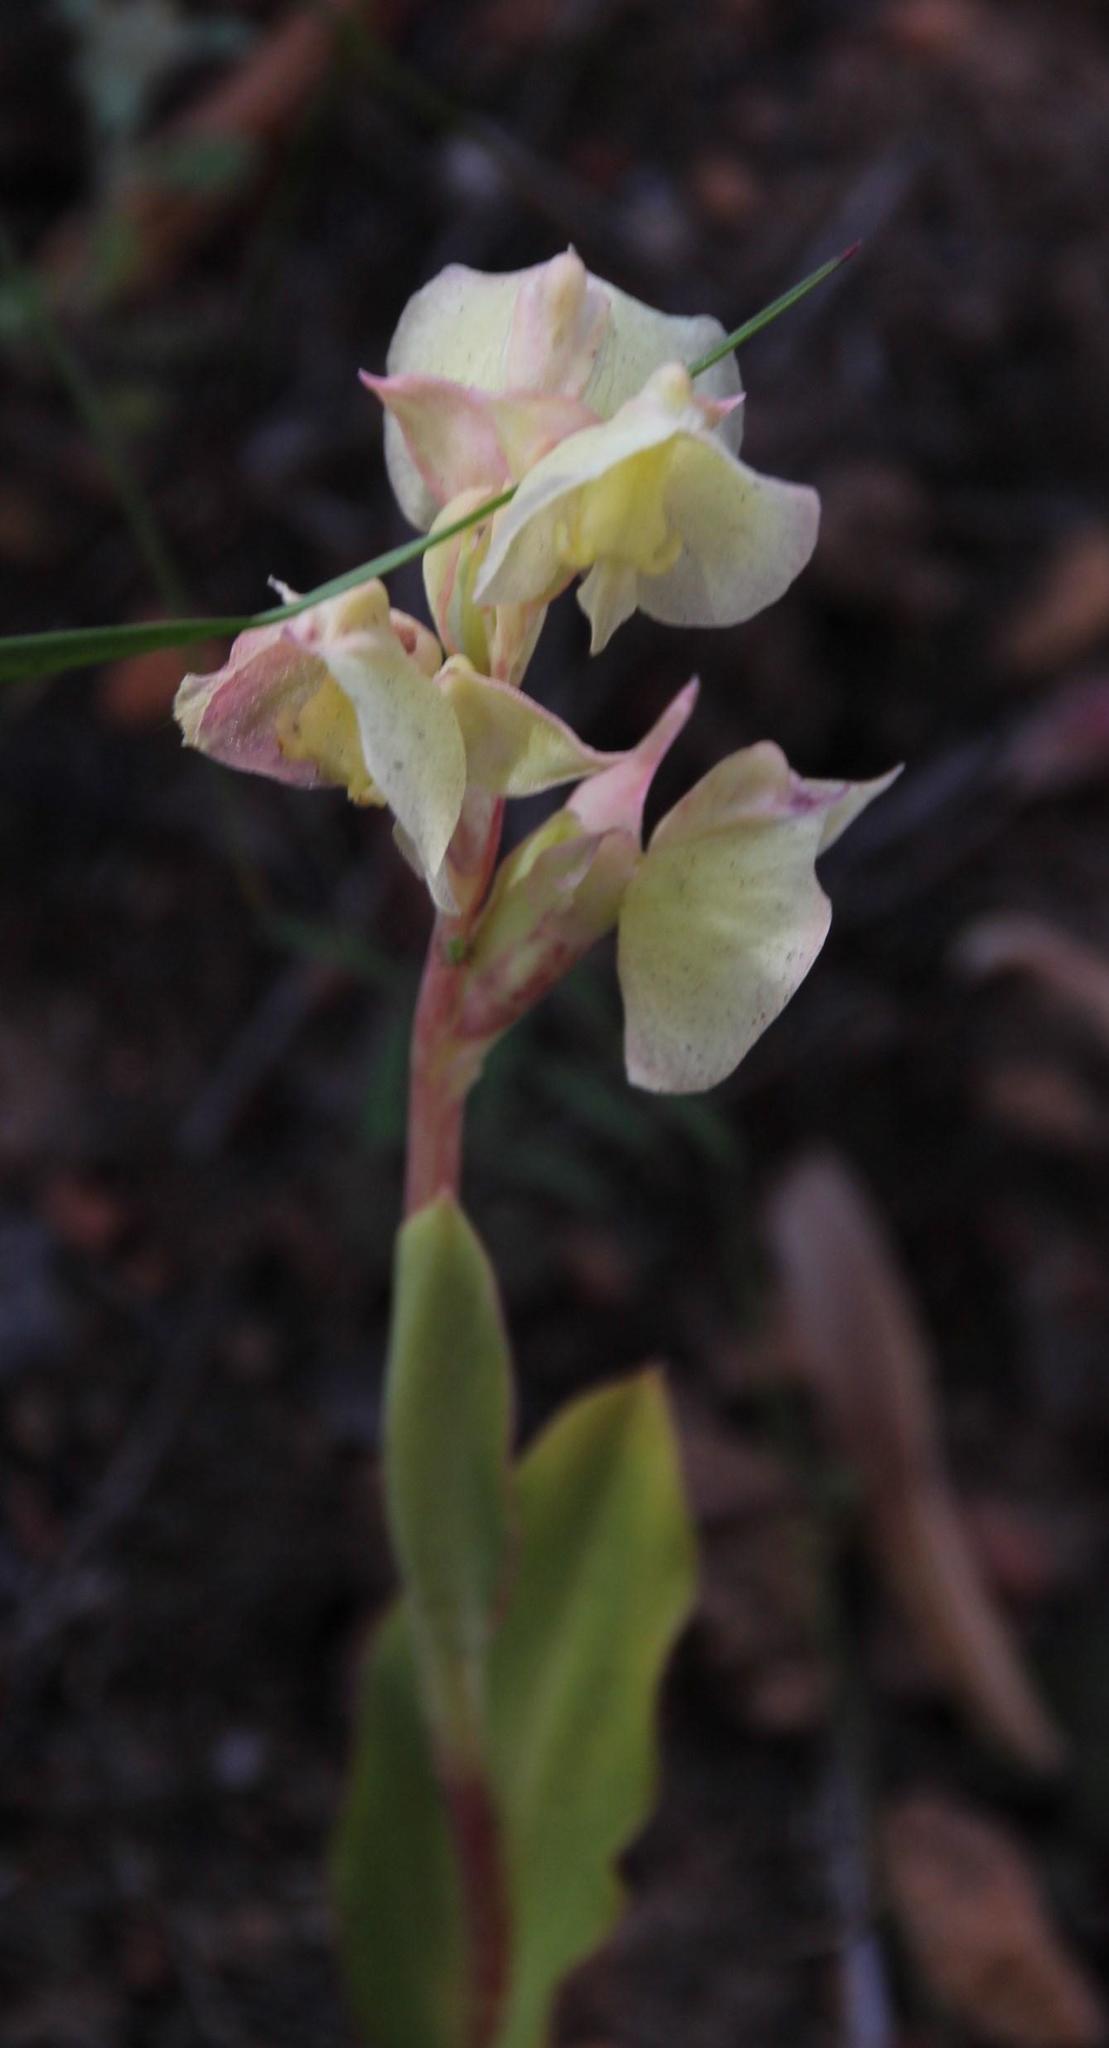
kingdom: Plantae
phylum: Tracheophyta
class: Liliopsida
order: Asparagales
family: Orchidaceae
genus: Pterygodium
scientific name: Pterygodium catholicum
